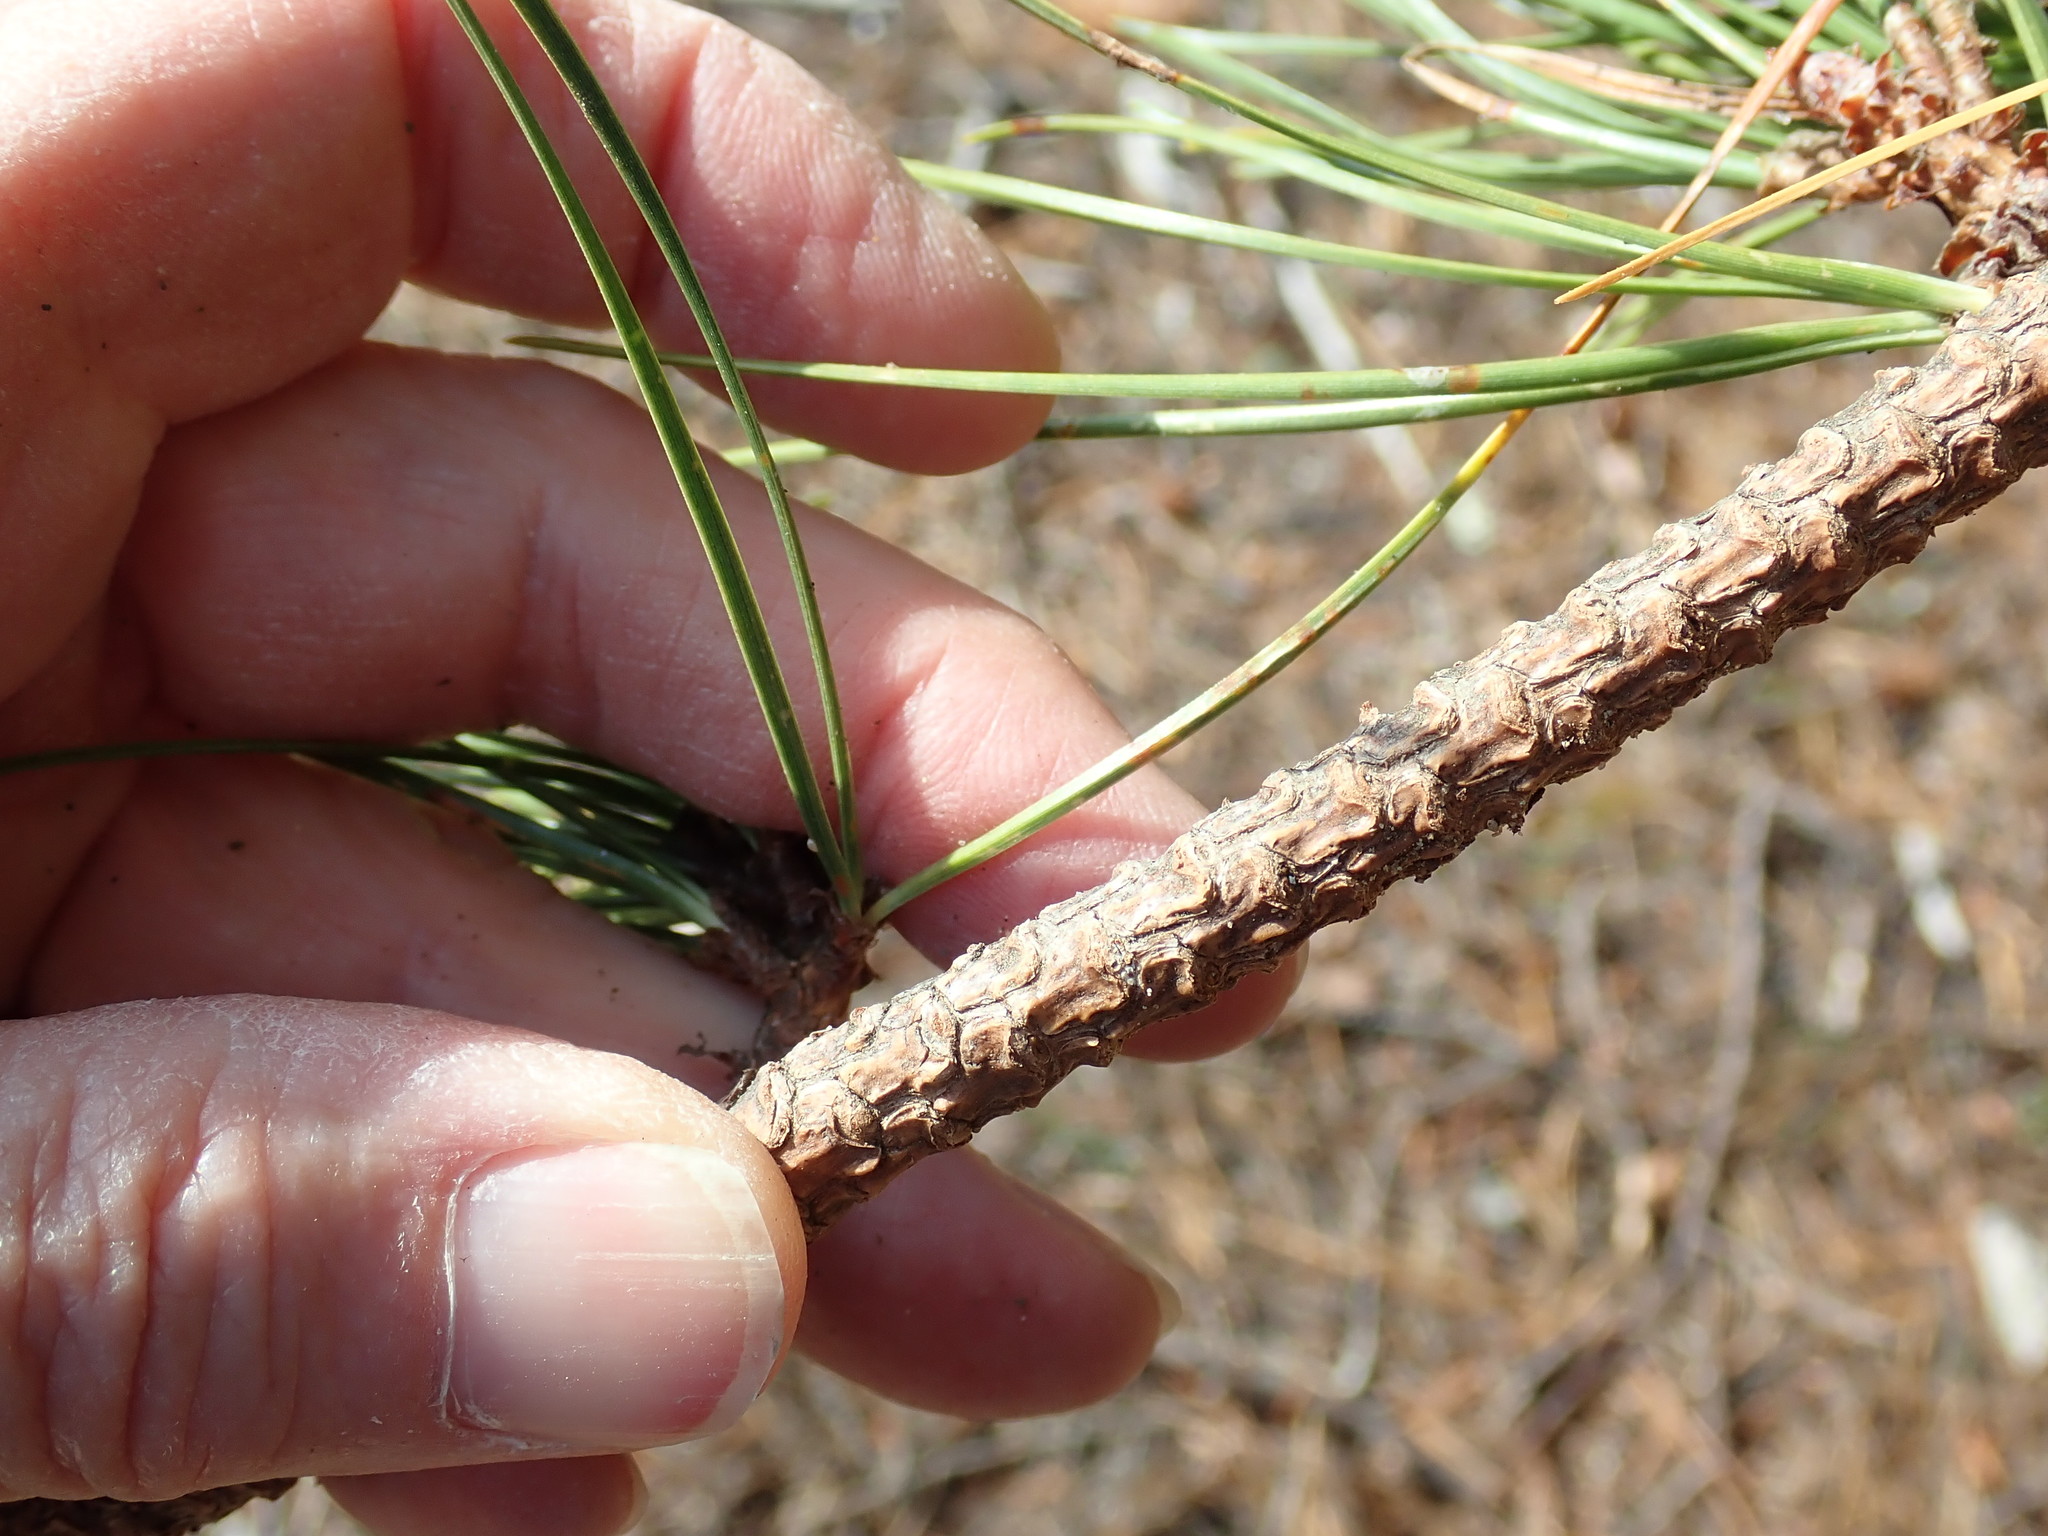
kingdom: Plantae
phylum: Tracheophyta
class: Pinopsida
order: Pinales
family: Pinaceae
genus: Pinus
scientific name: Pinus rigida
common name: Pitch pine
